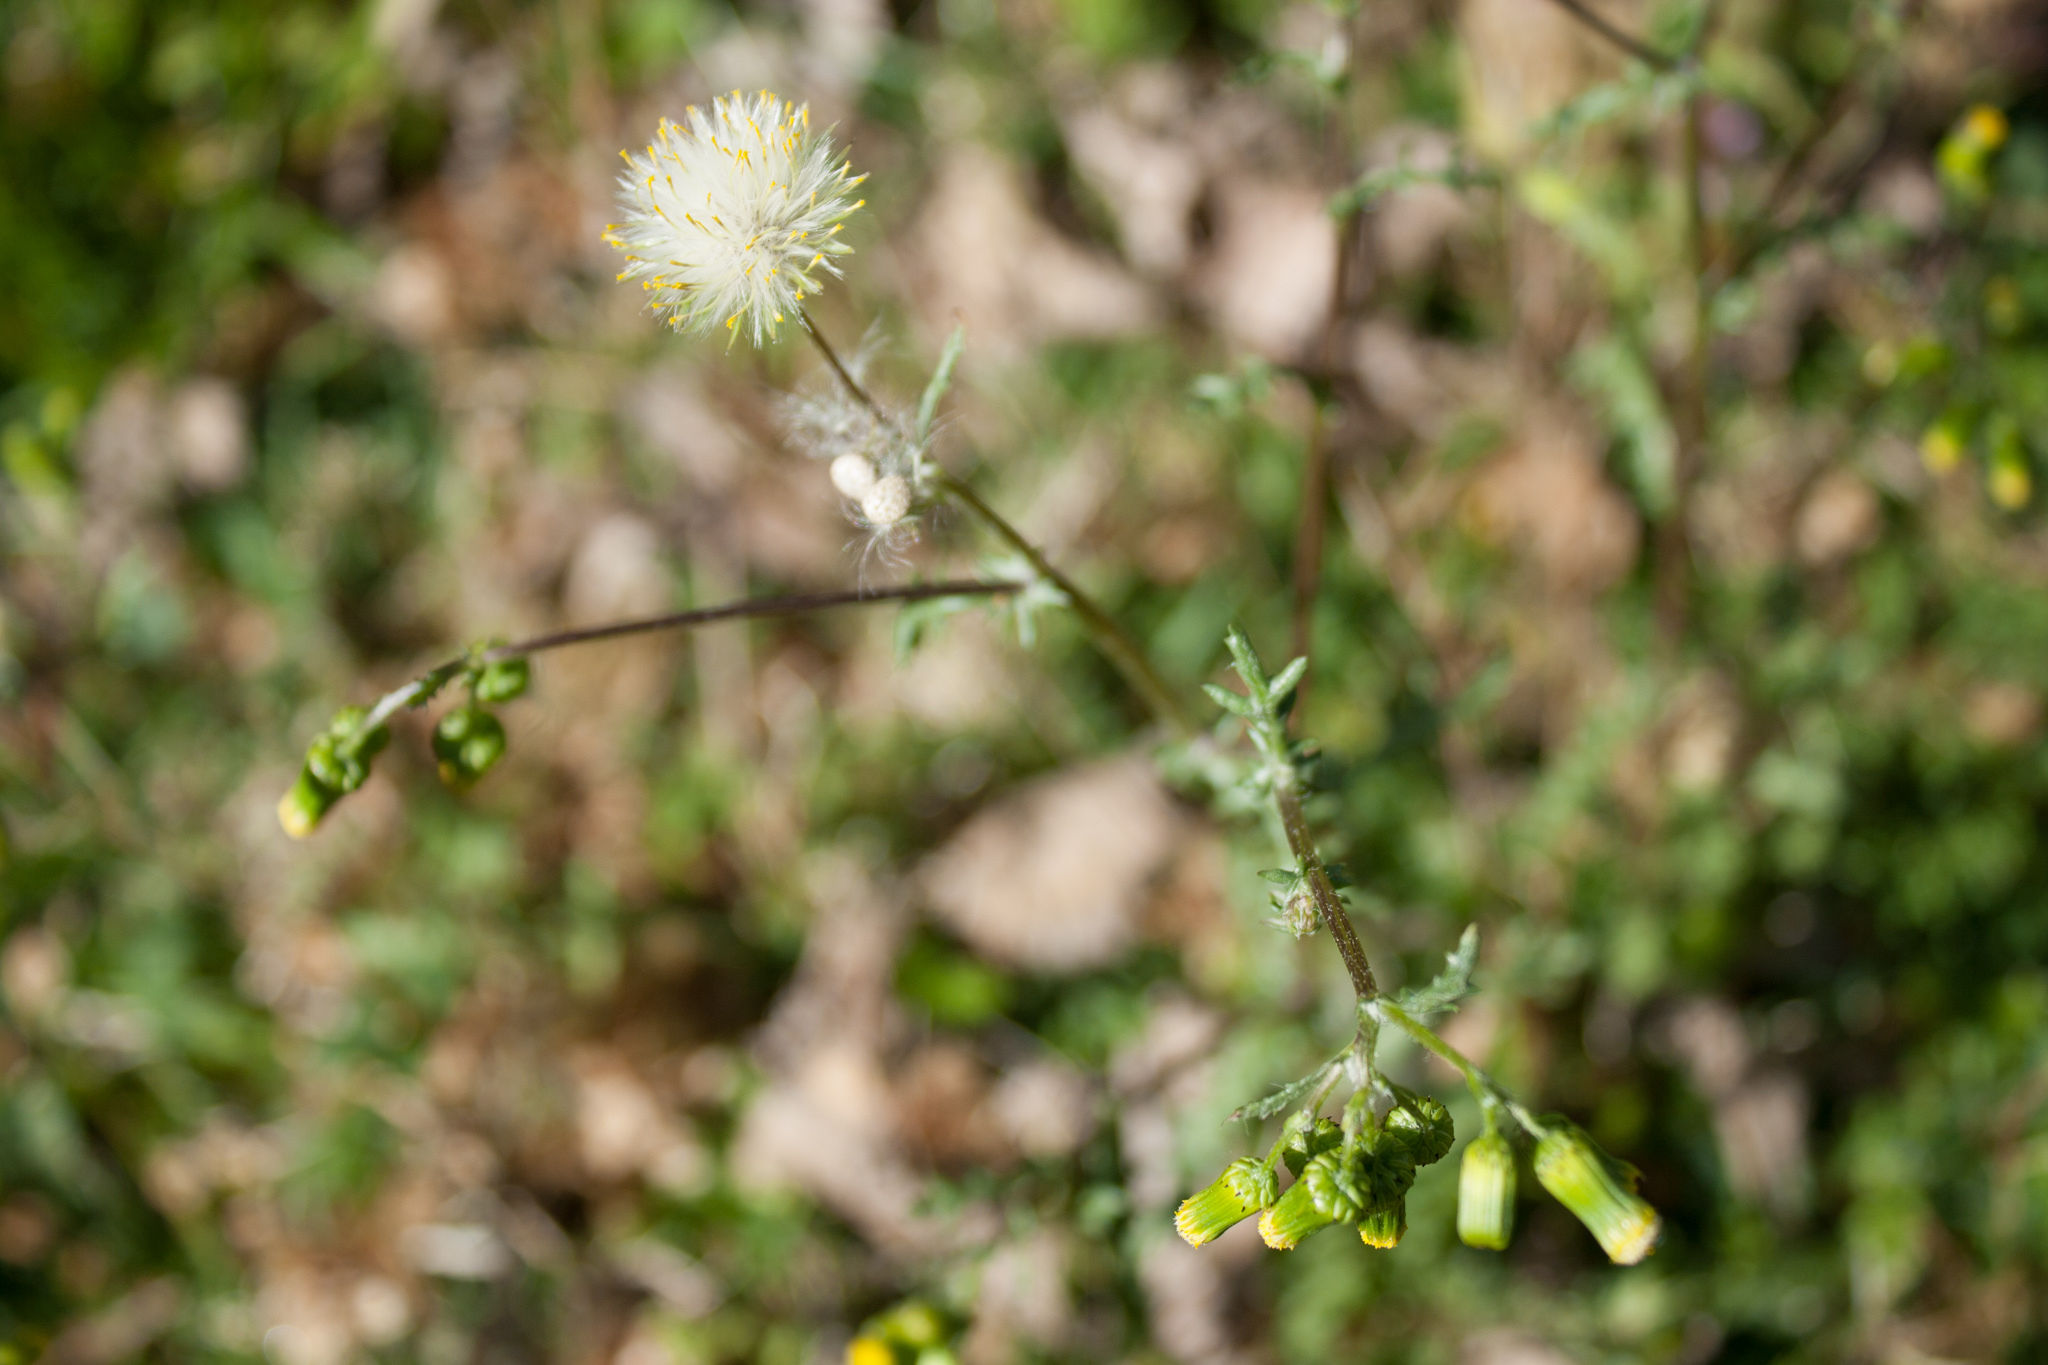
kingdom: Plantae
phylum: Tracheophyta
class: Magnoliopsida
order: Asterales
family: Asteraceae
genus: Senecio
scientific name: Senecio vulgaris
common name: Old-man-in-the-spring
